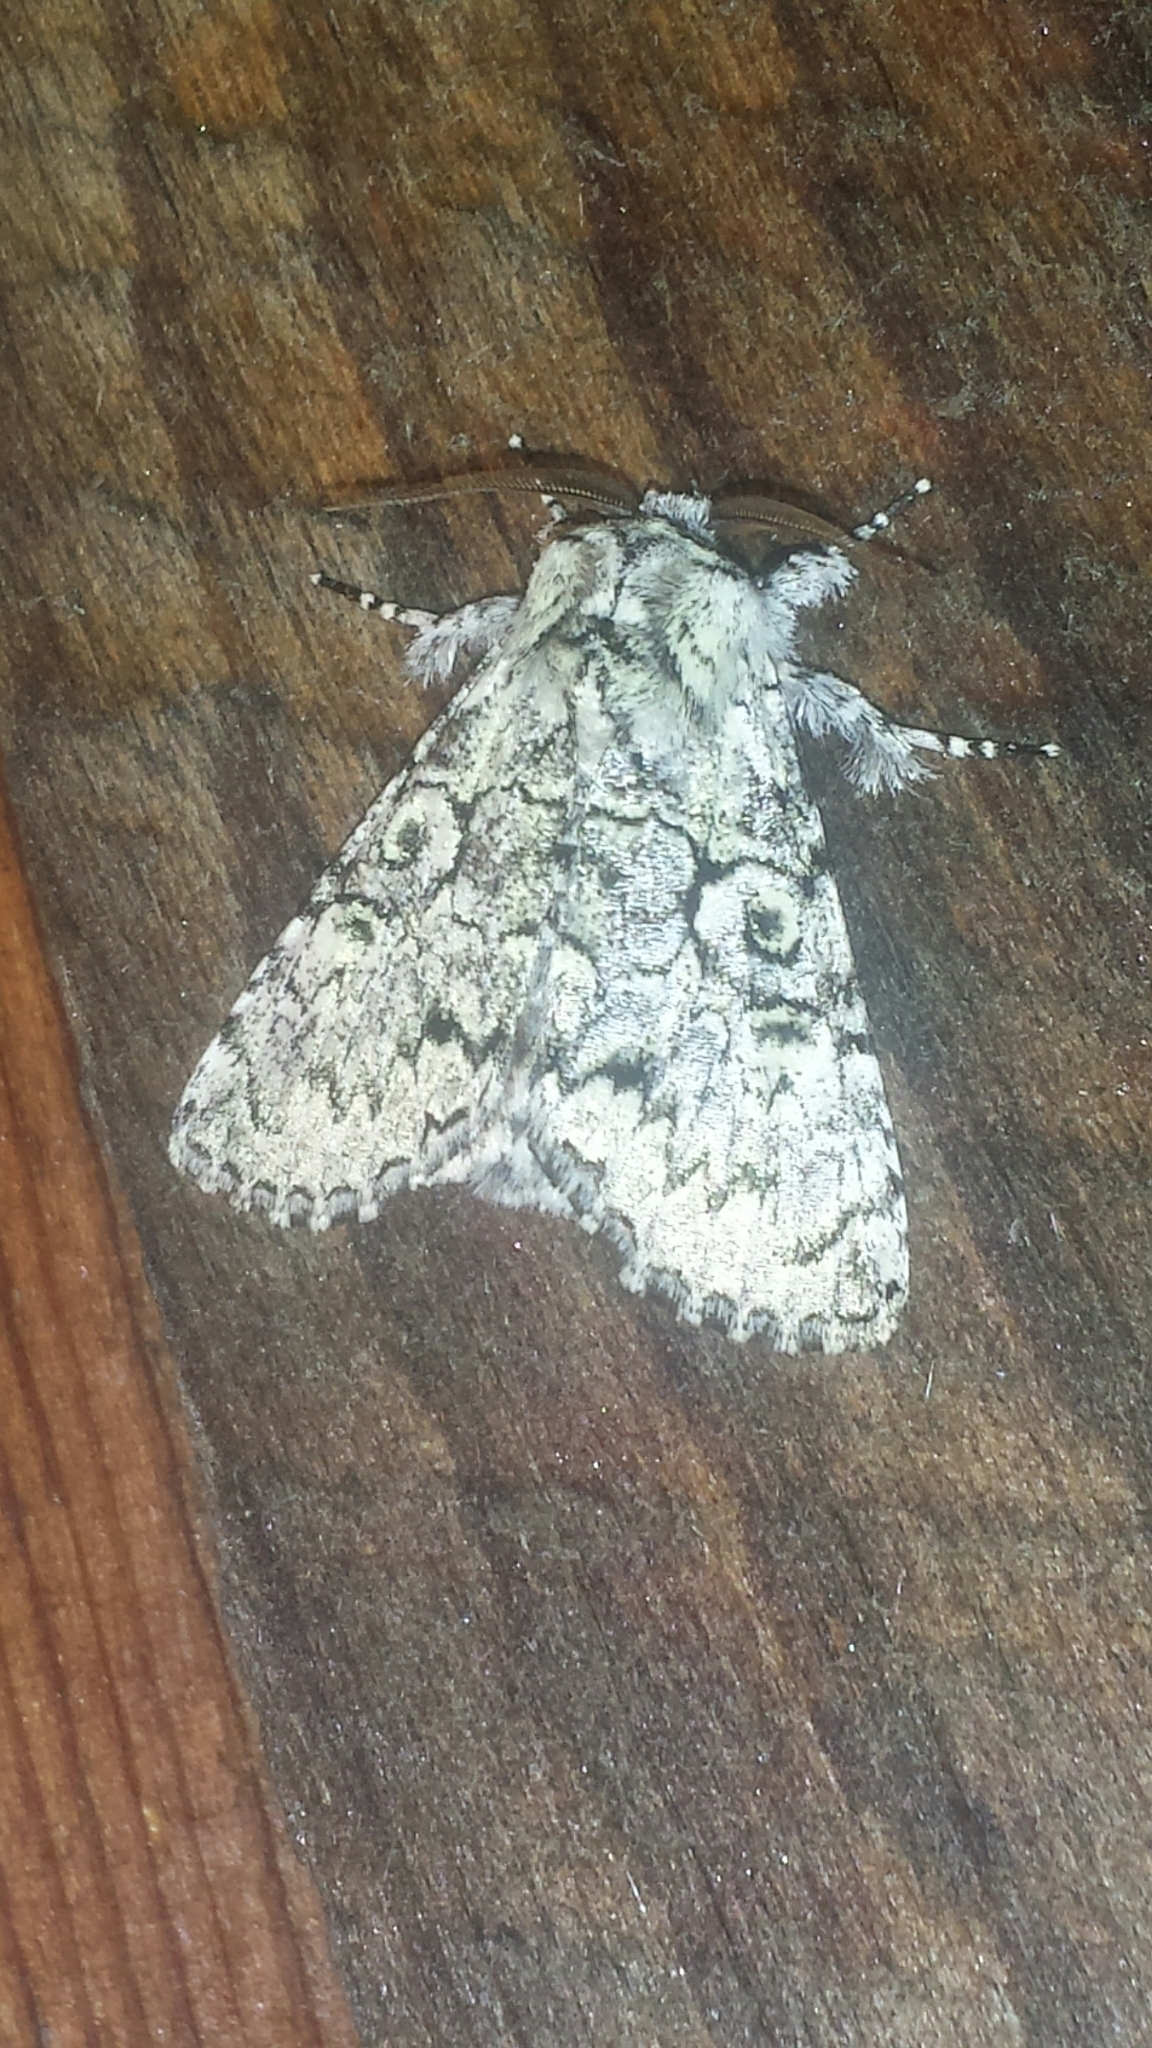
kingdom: Animalia
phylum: Arthropoda
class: Insecta
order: Lepidoptera
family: Noctuidae
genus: Charadra
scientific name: Charadra deridens
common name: Marbled tuffet
